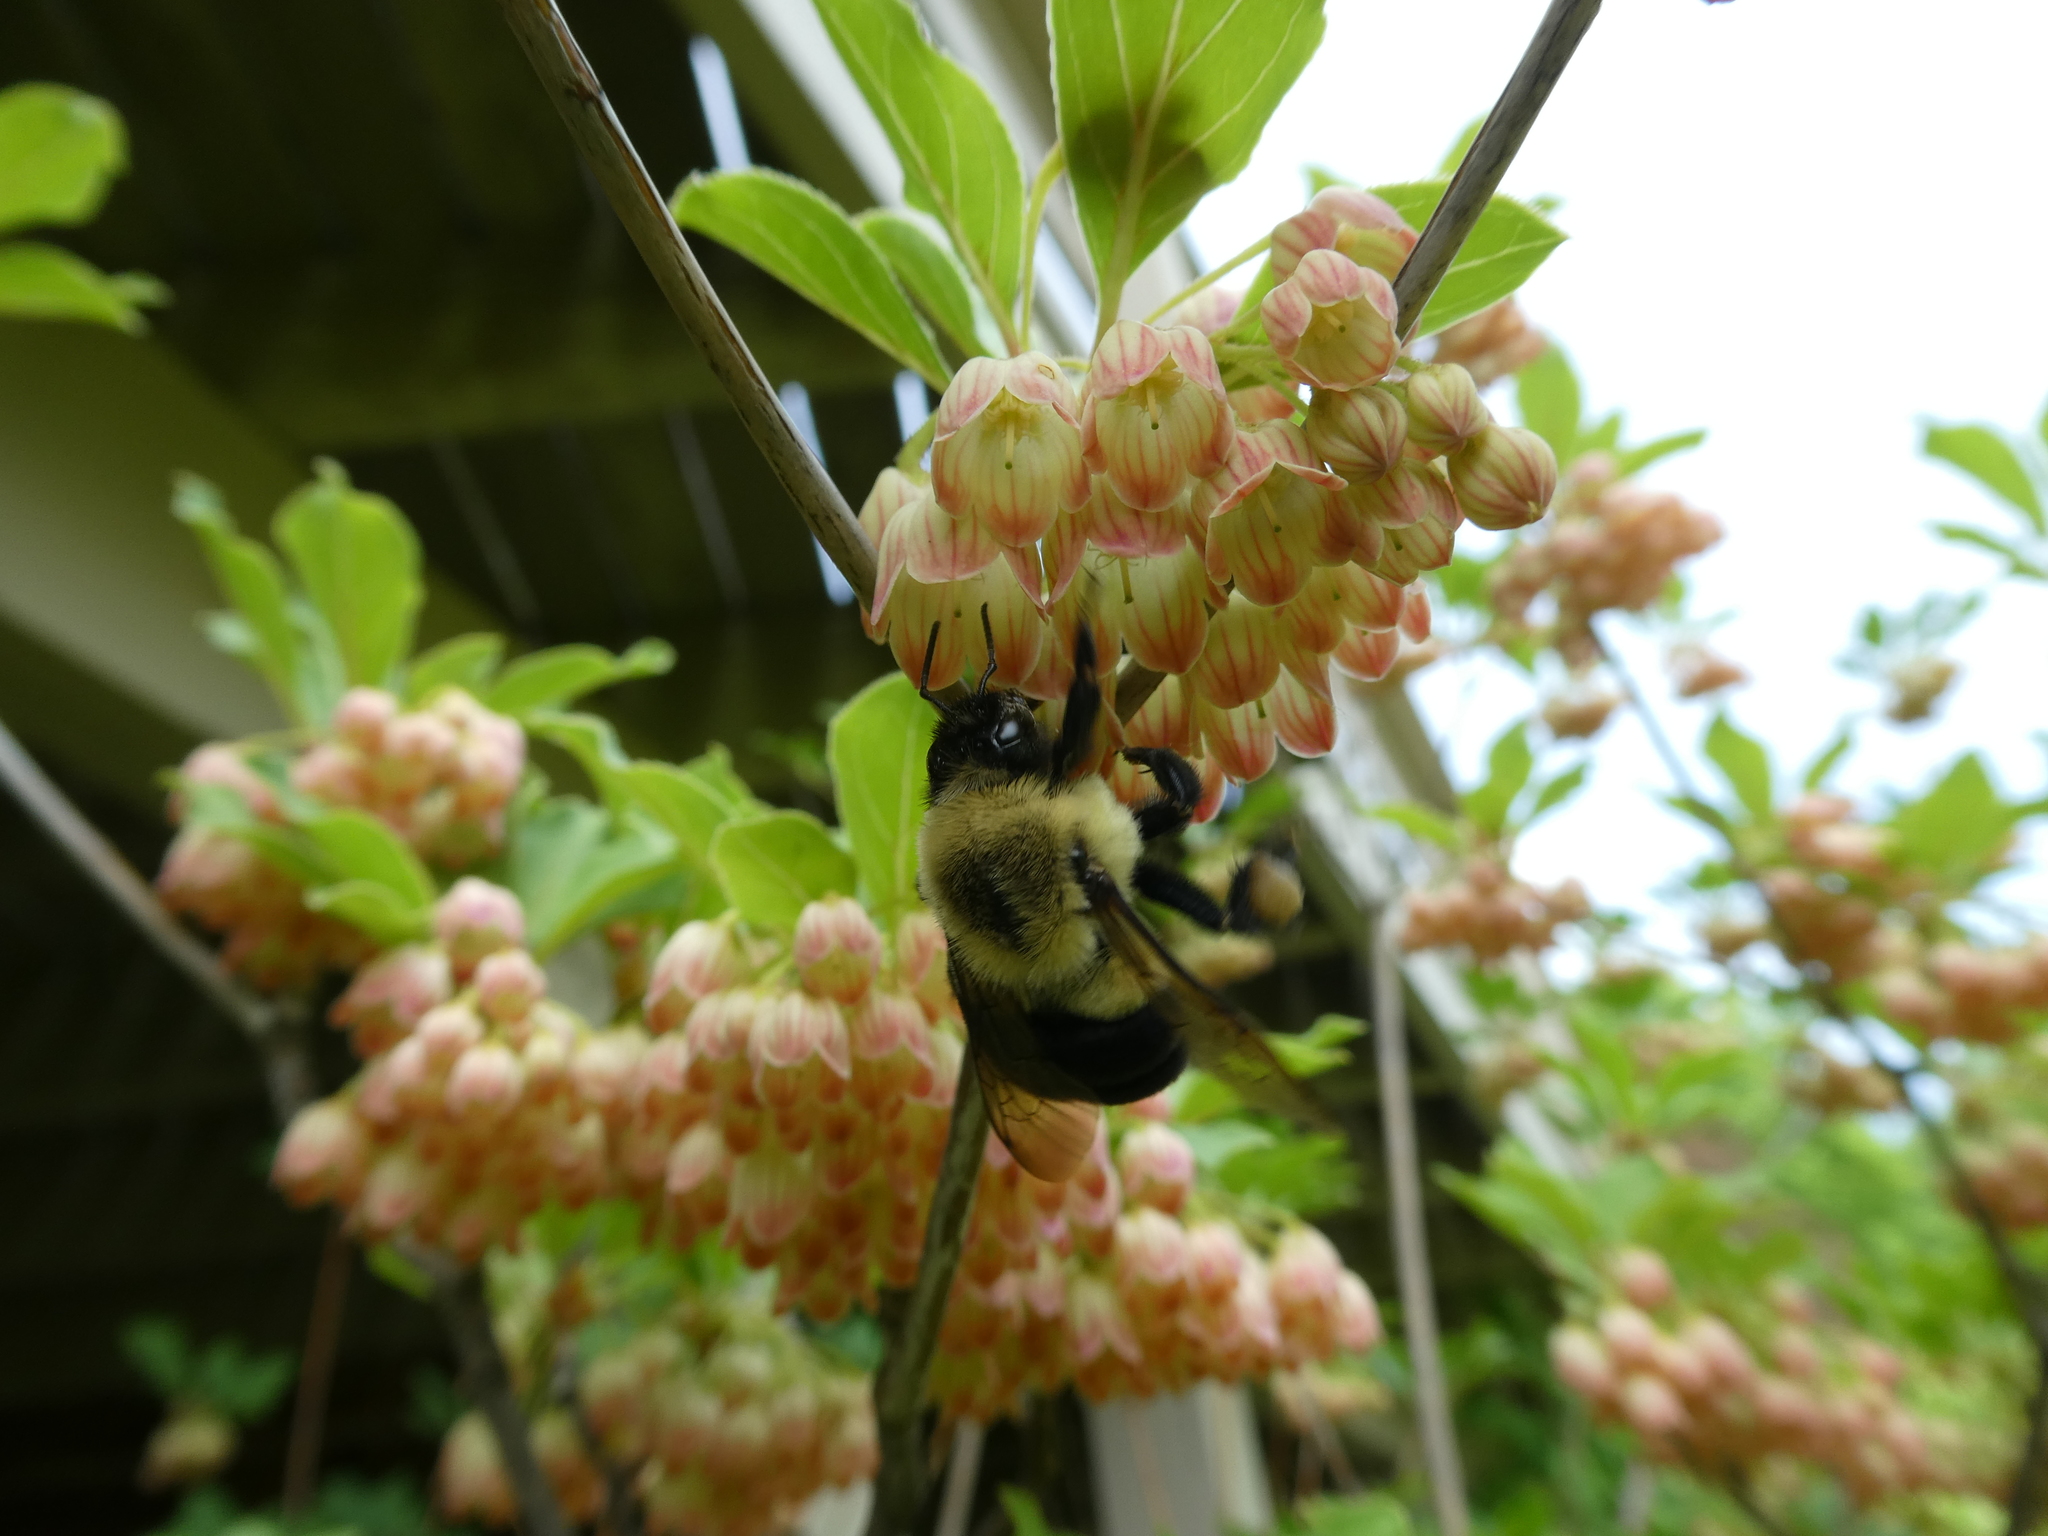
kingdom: Animalia
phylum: Arthropoda
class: Insecta
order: Hymenoptera
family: Apidae
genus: Bombus
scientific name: Bombus impatiens
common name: Common eastern bumble bee
